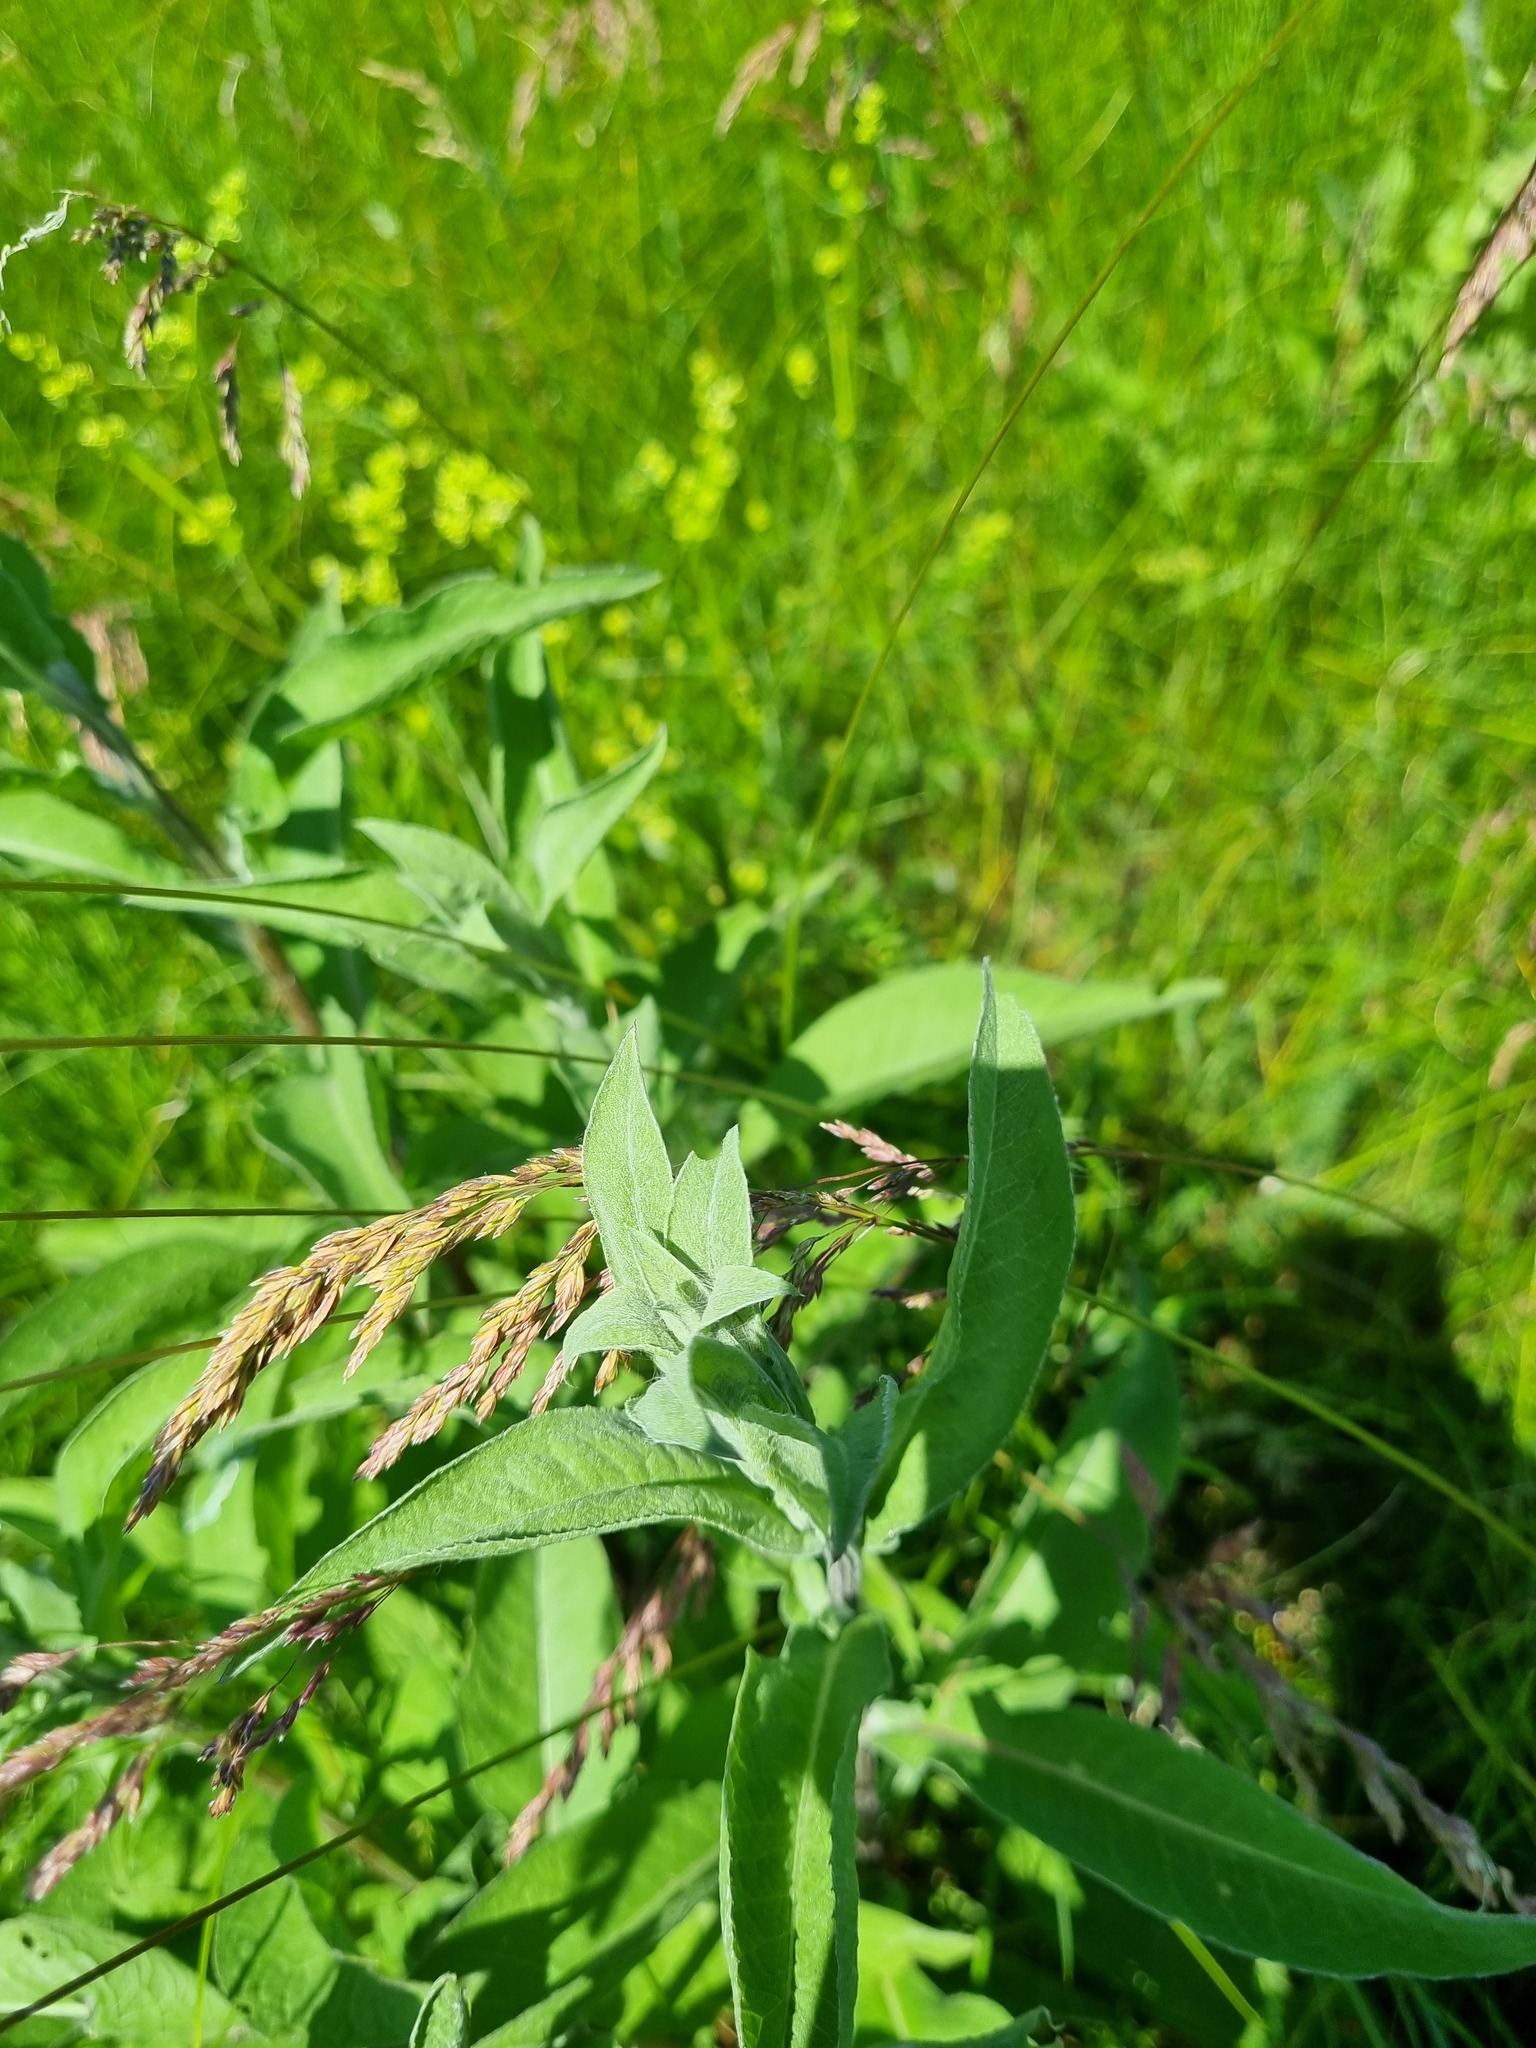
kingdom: Plantae
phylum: Tracheophyta
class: Magnoliopsida
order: Asterales
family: Asteraceae
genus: Centaurea
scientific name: Centaurea jacea
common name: Brown knapweed
